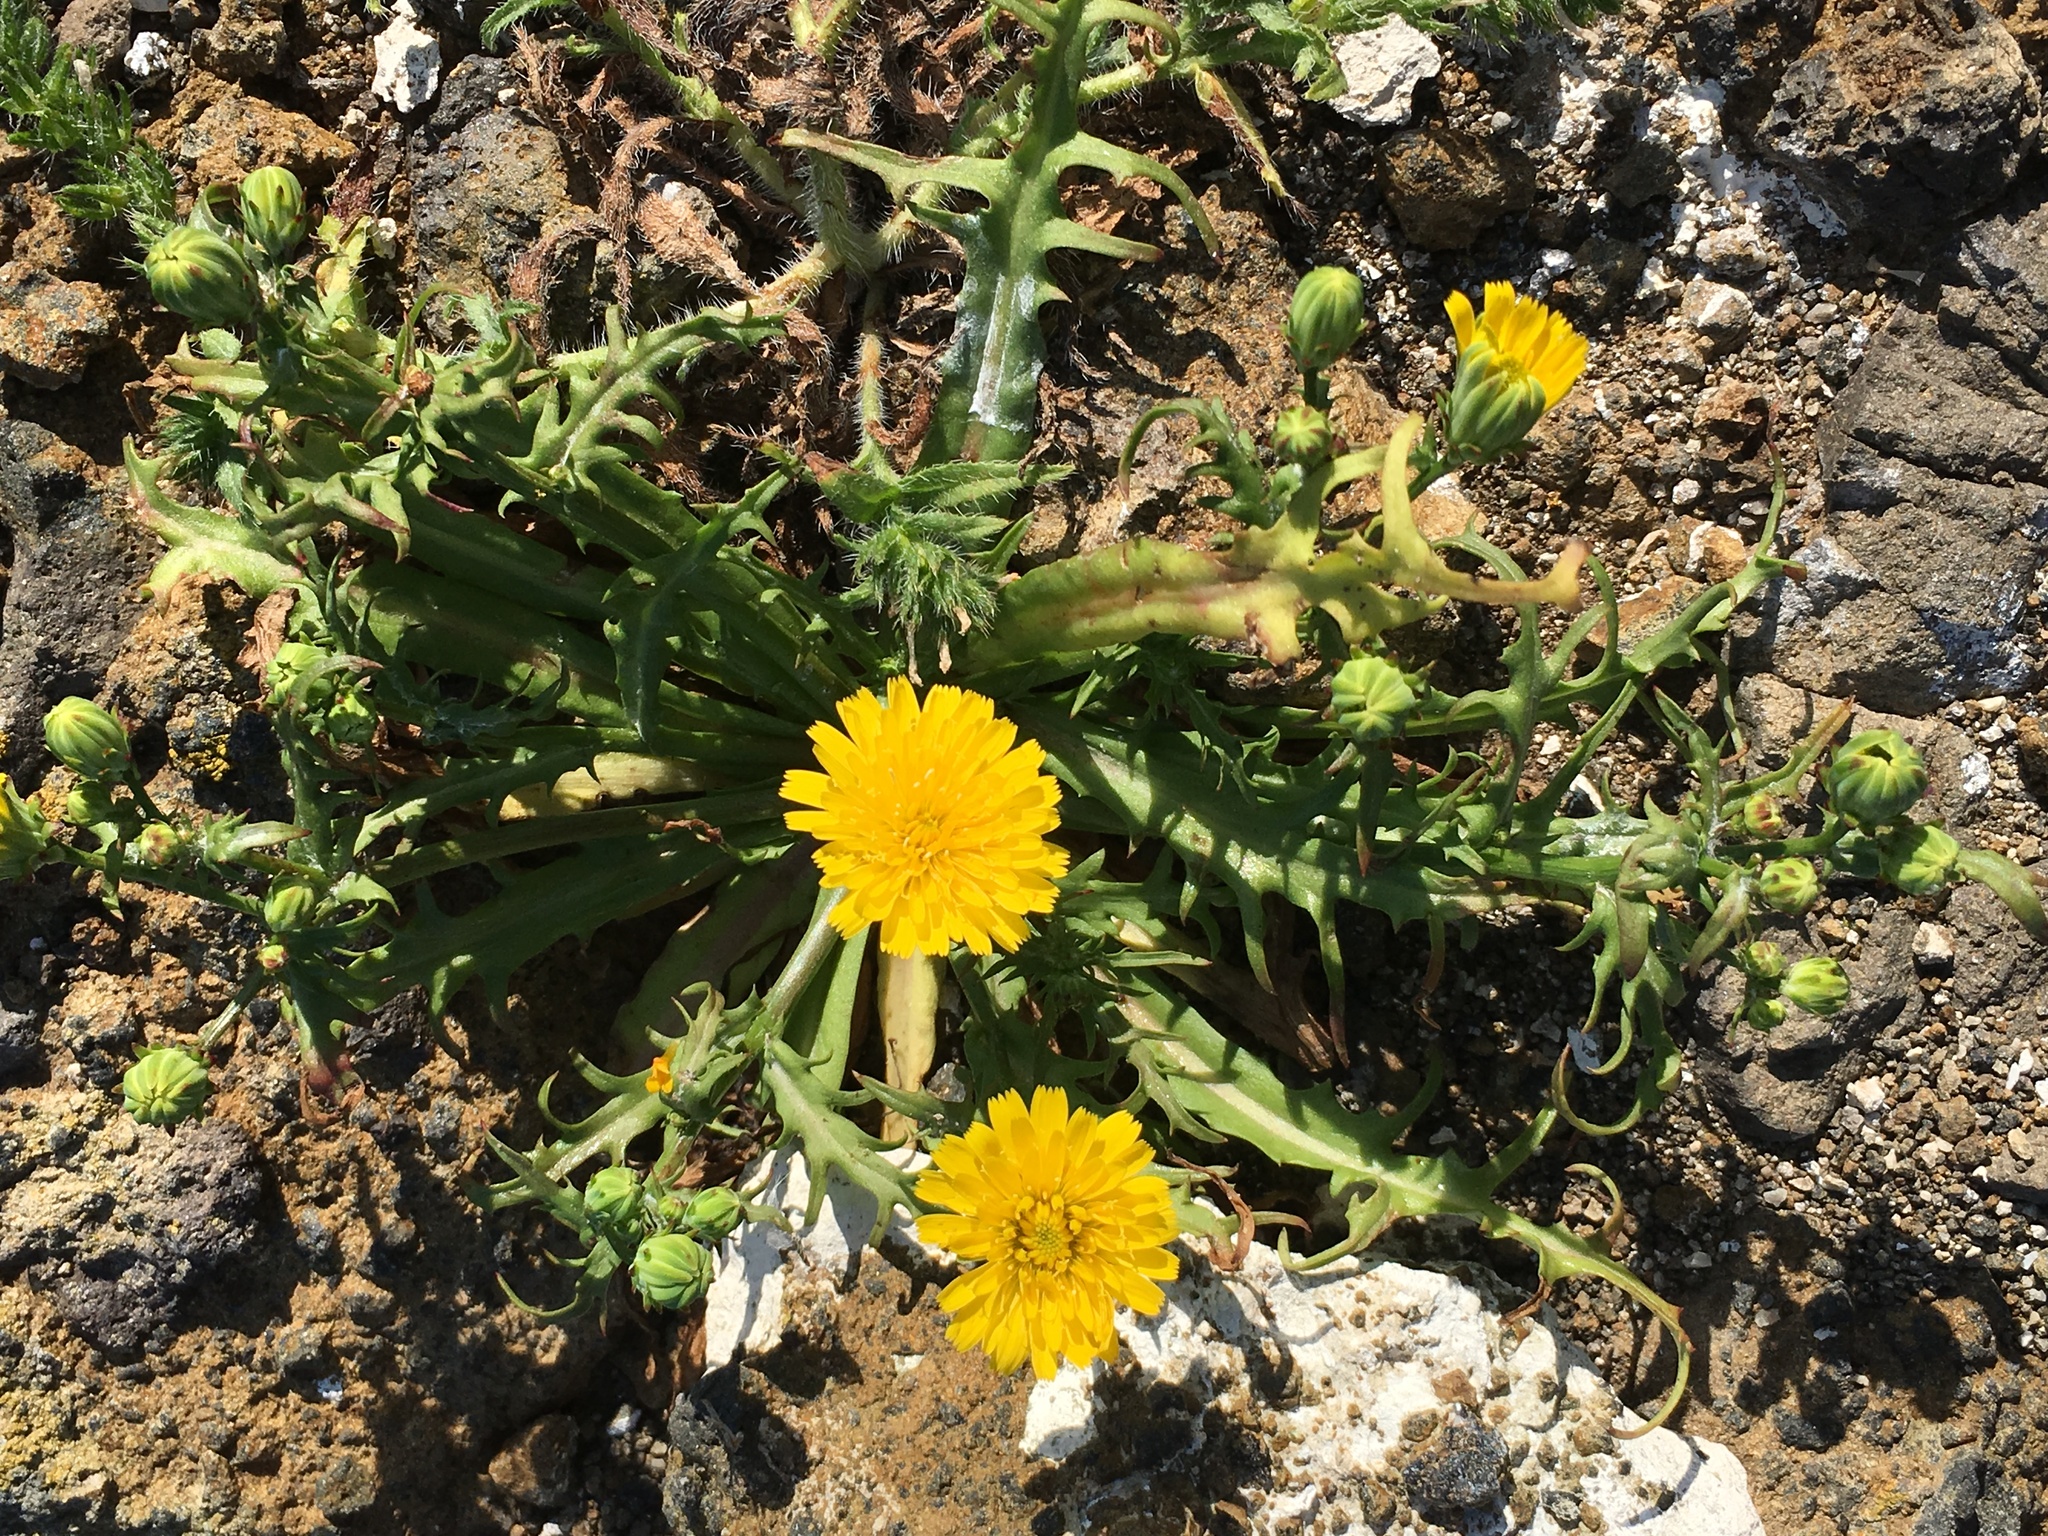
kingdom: Plantae
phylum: Tracheophyta
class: Magnoliopsida
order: Asterales
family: Asteraceae
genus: Malacothrix
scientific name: Malacothrix foliosa
